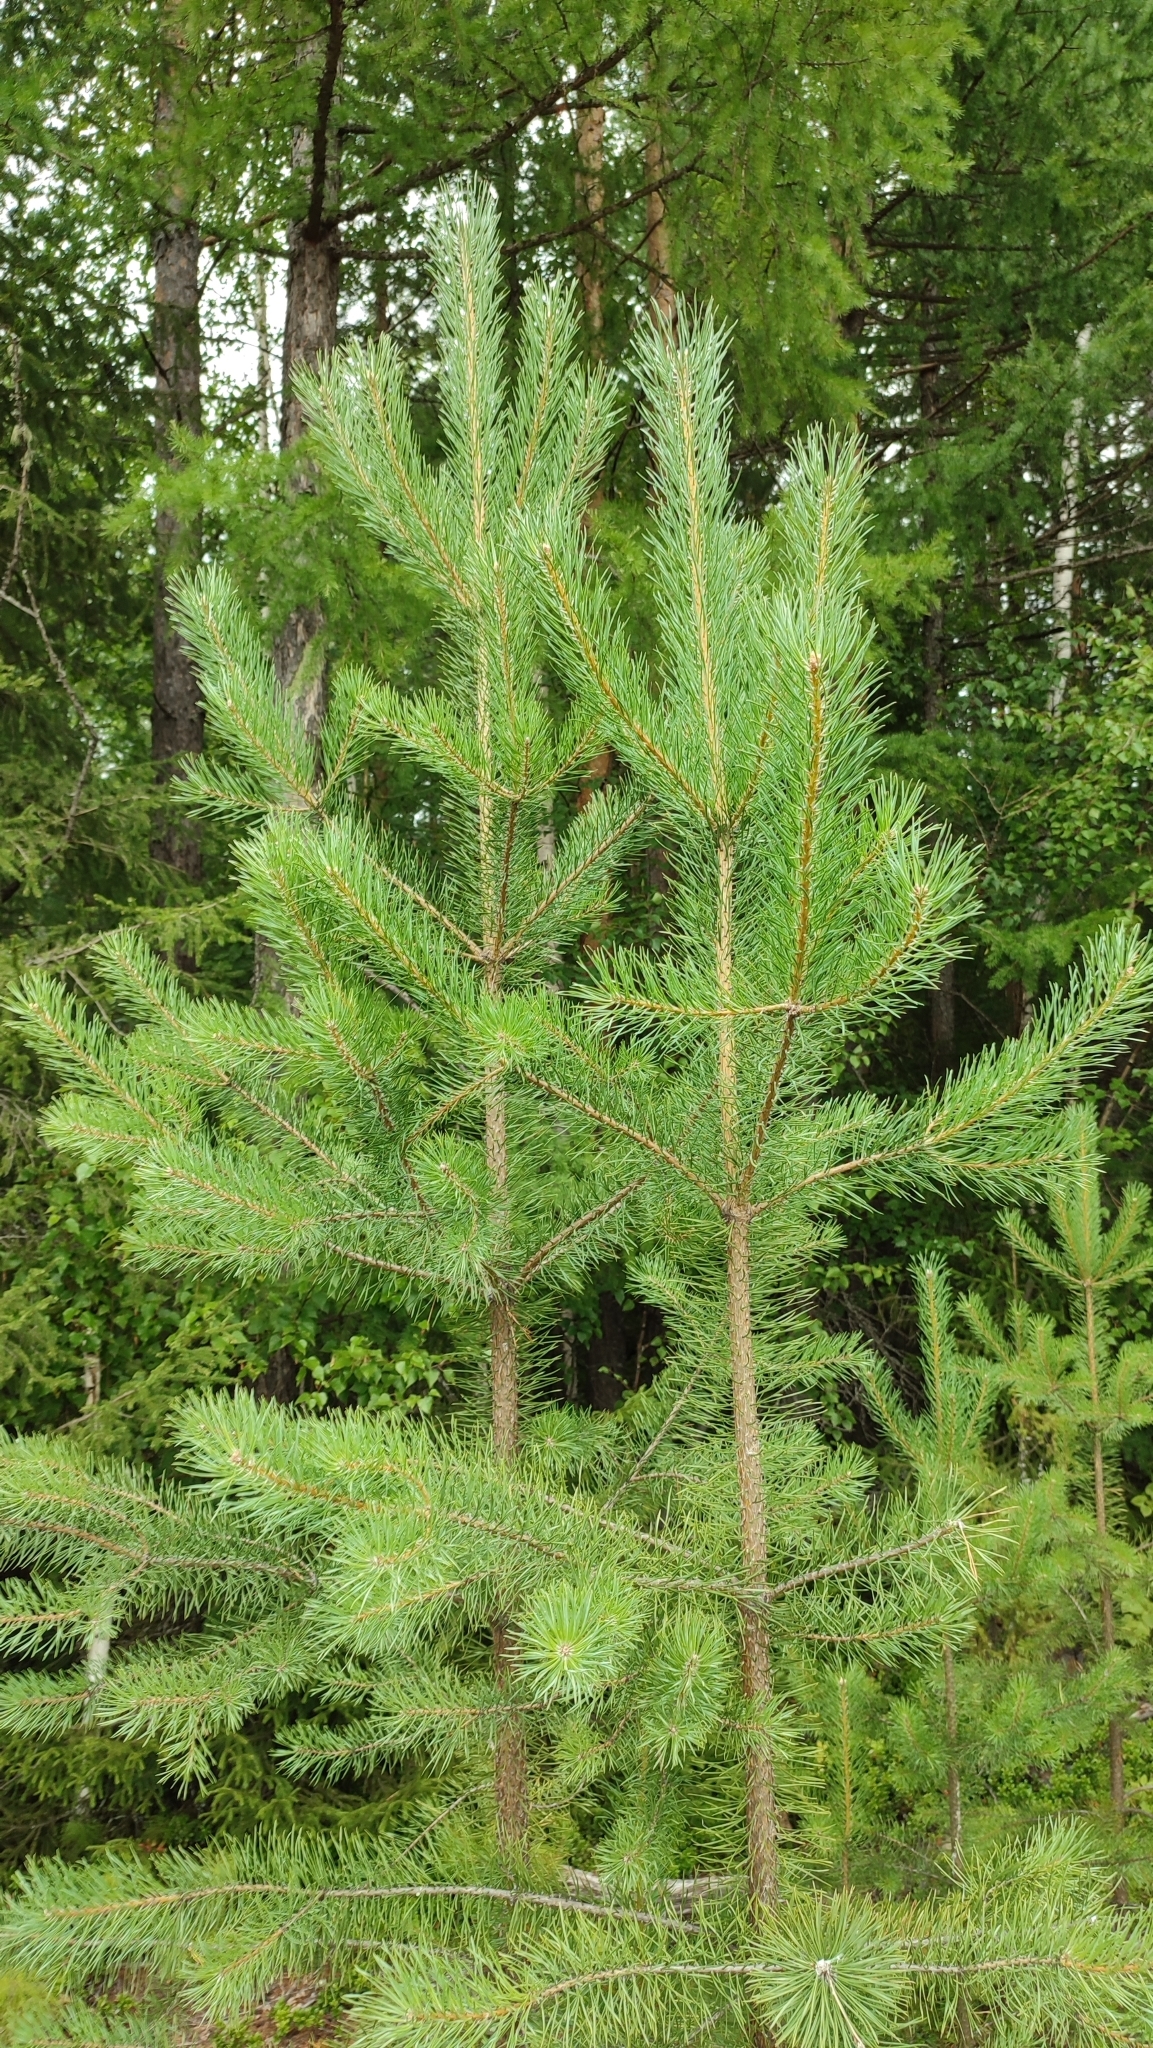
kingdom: Plantae
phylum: Tracheophyta
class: Pinopsida
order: Pinales
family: Pinaceae
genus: Pinus
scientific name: Pinus sylvestris
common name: Scots pine
